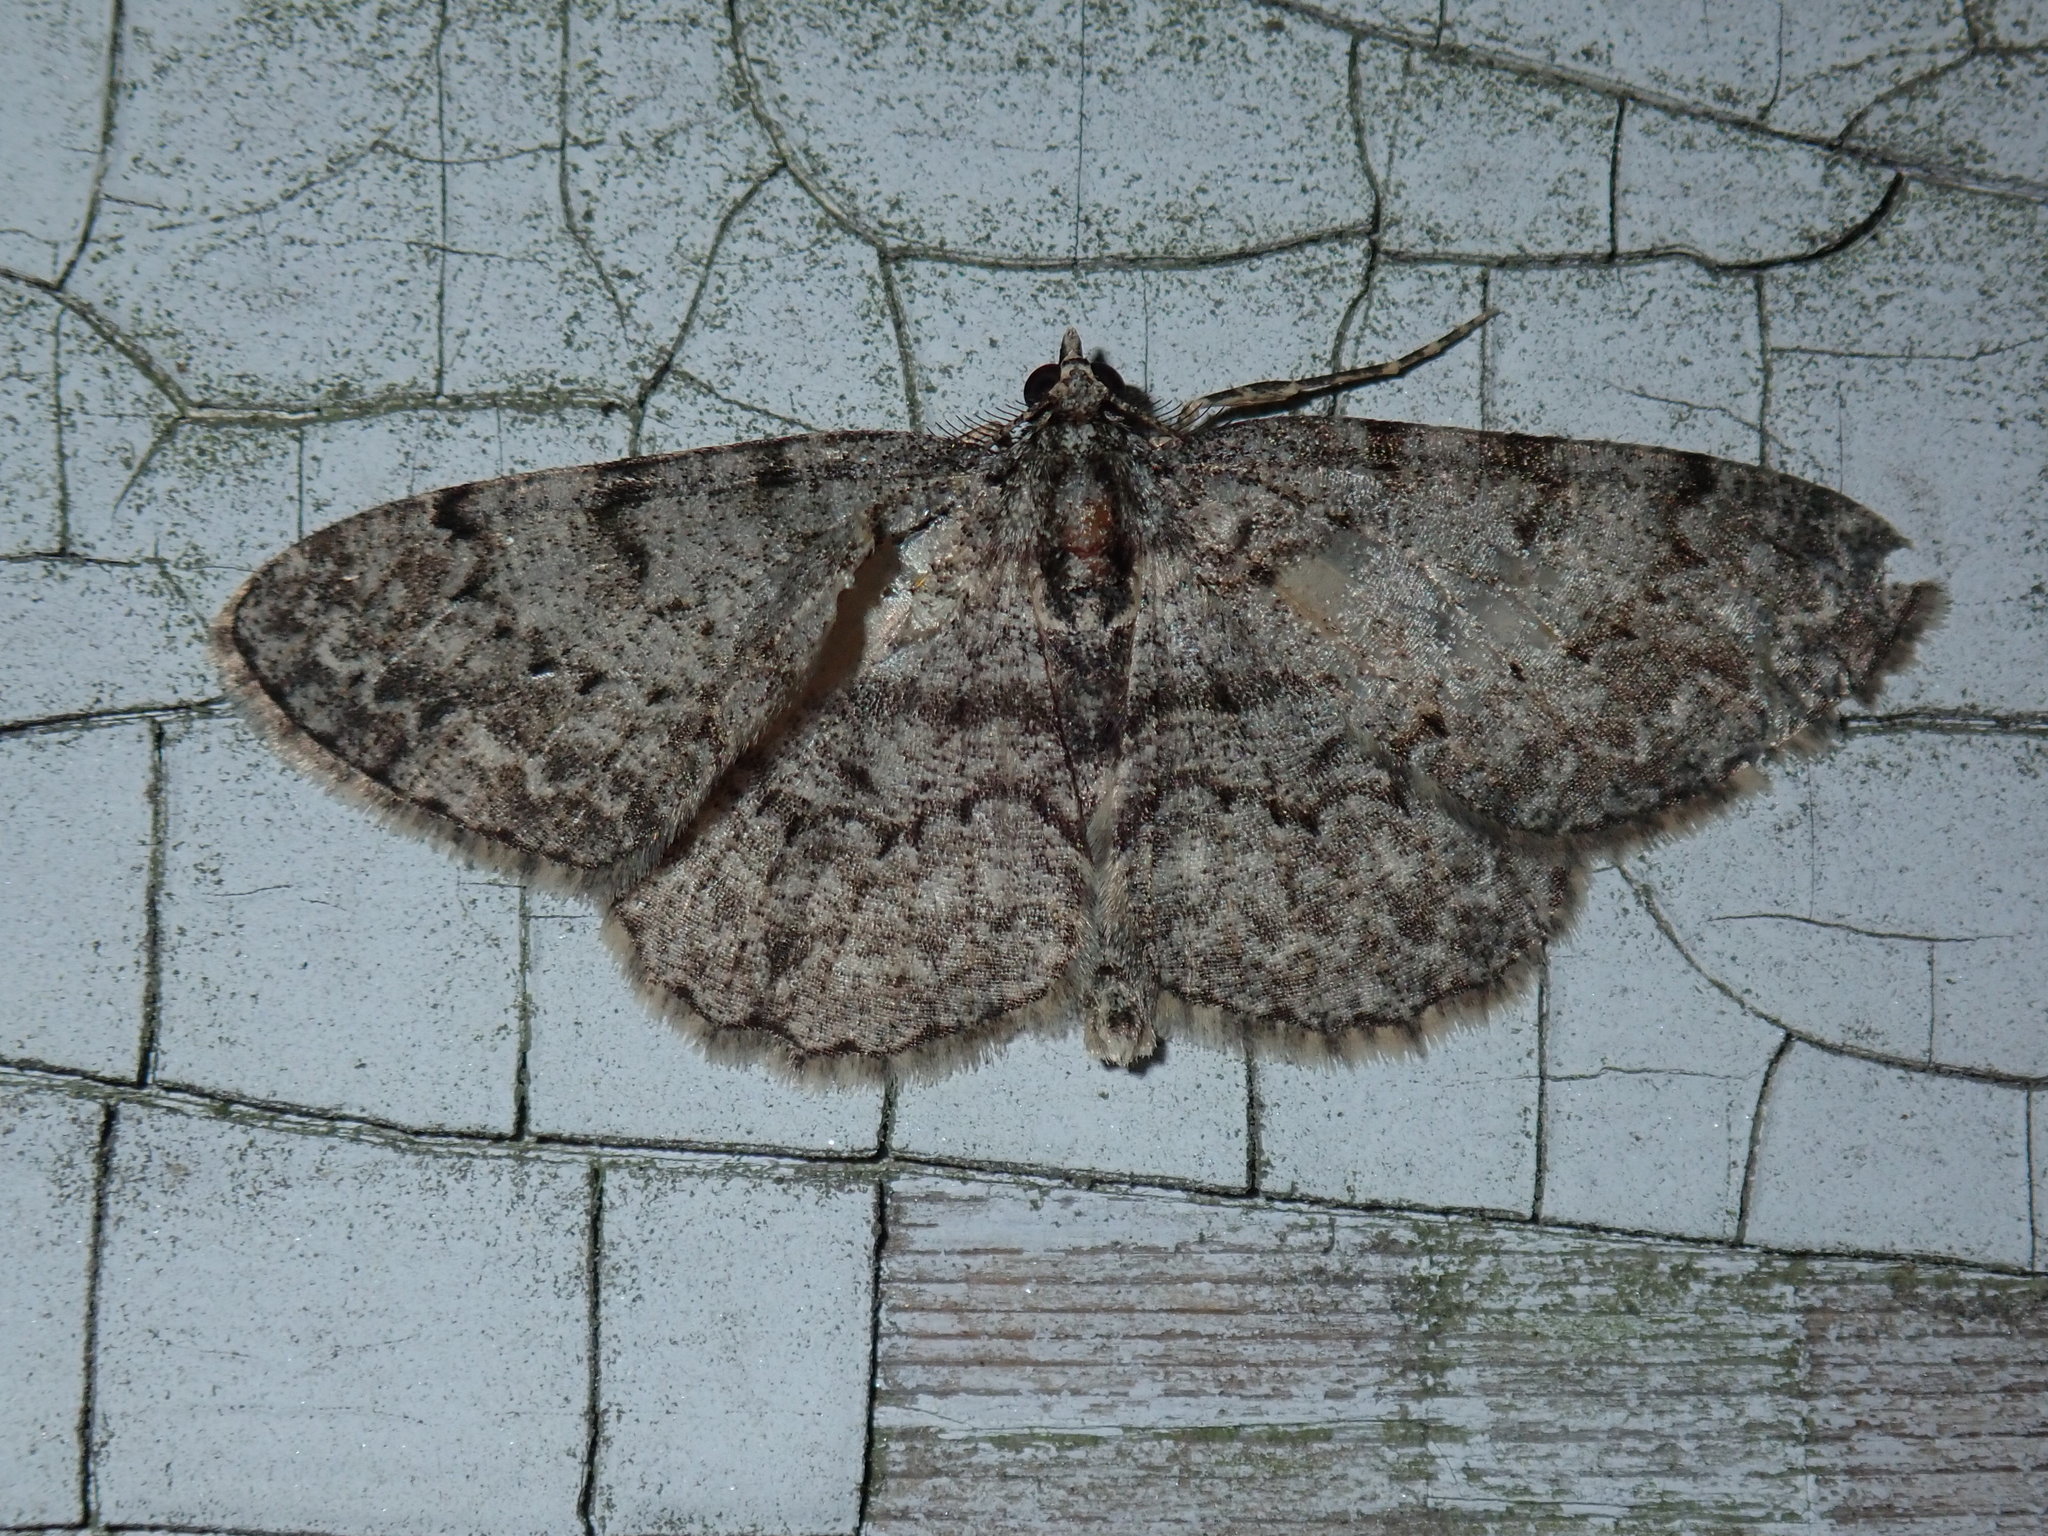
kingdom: Animalia
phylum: Arthropoda
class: Insecta
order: Lepidoptera
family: Geometridae
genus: Protoboarmia
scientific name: Protoboarmia porcelaria
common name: Porcelain gray
